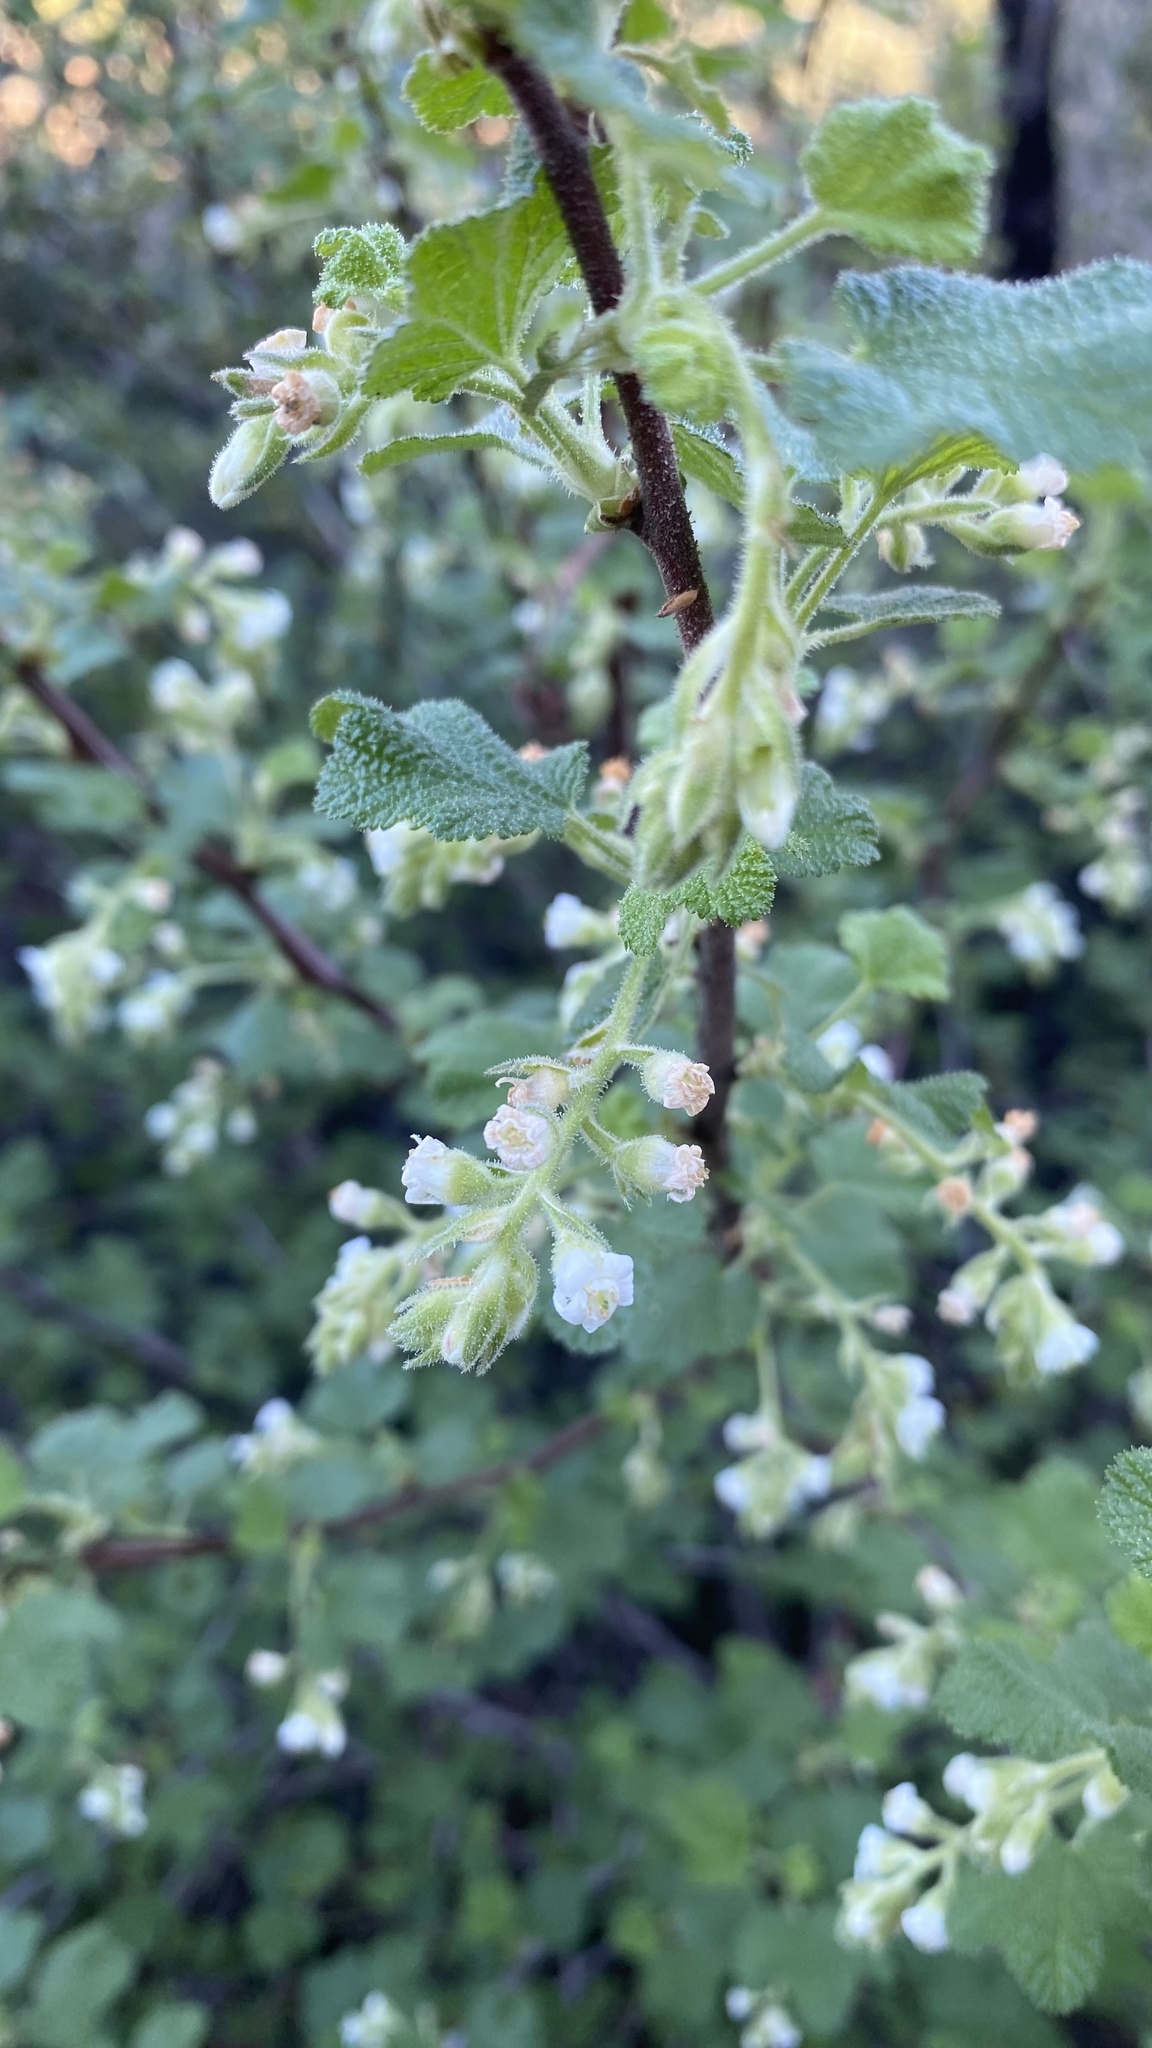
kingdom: Plantae
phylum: Tracheophyta
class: Magnoliopsida
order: Saxifragales
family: Grossulariaceae
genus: Ribes
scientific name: Ribes indecorum
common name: White-flower currant
